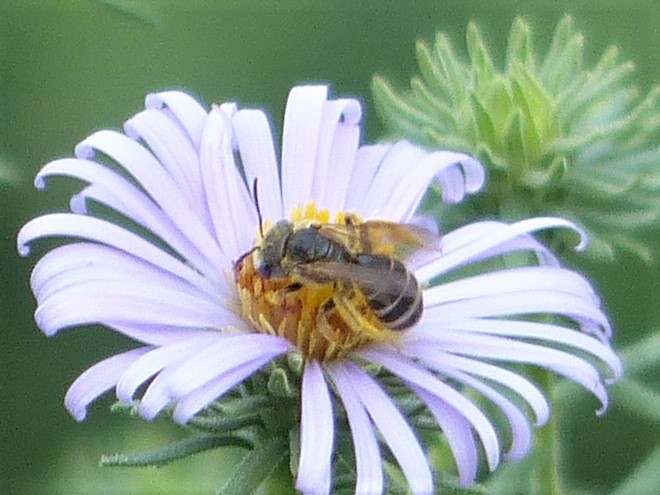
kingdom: Animalia
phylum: Arthropoda
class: Insecta
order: Hymenoptera
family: Halictidae
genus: Halictus
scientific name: Halictus ligatus
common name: Ligated furrow bee
